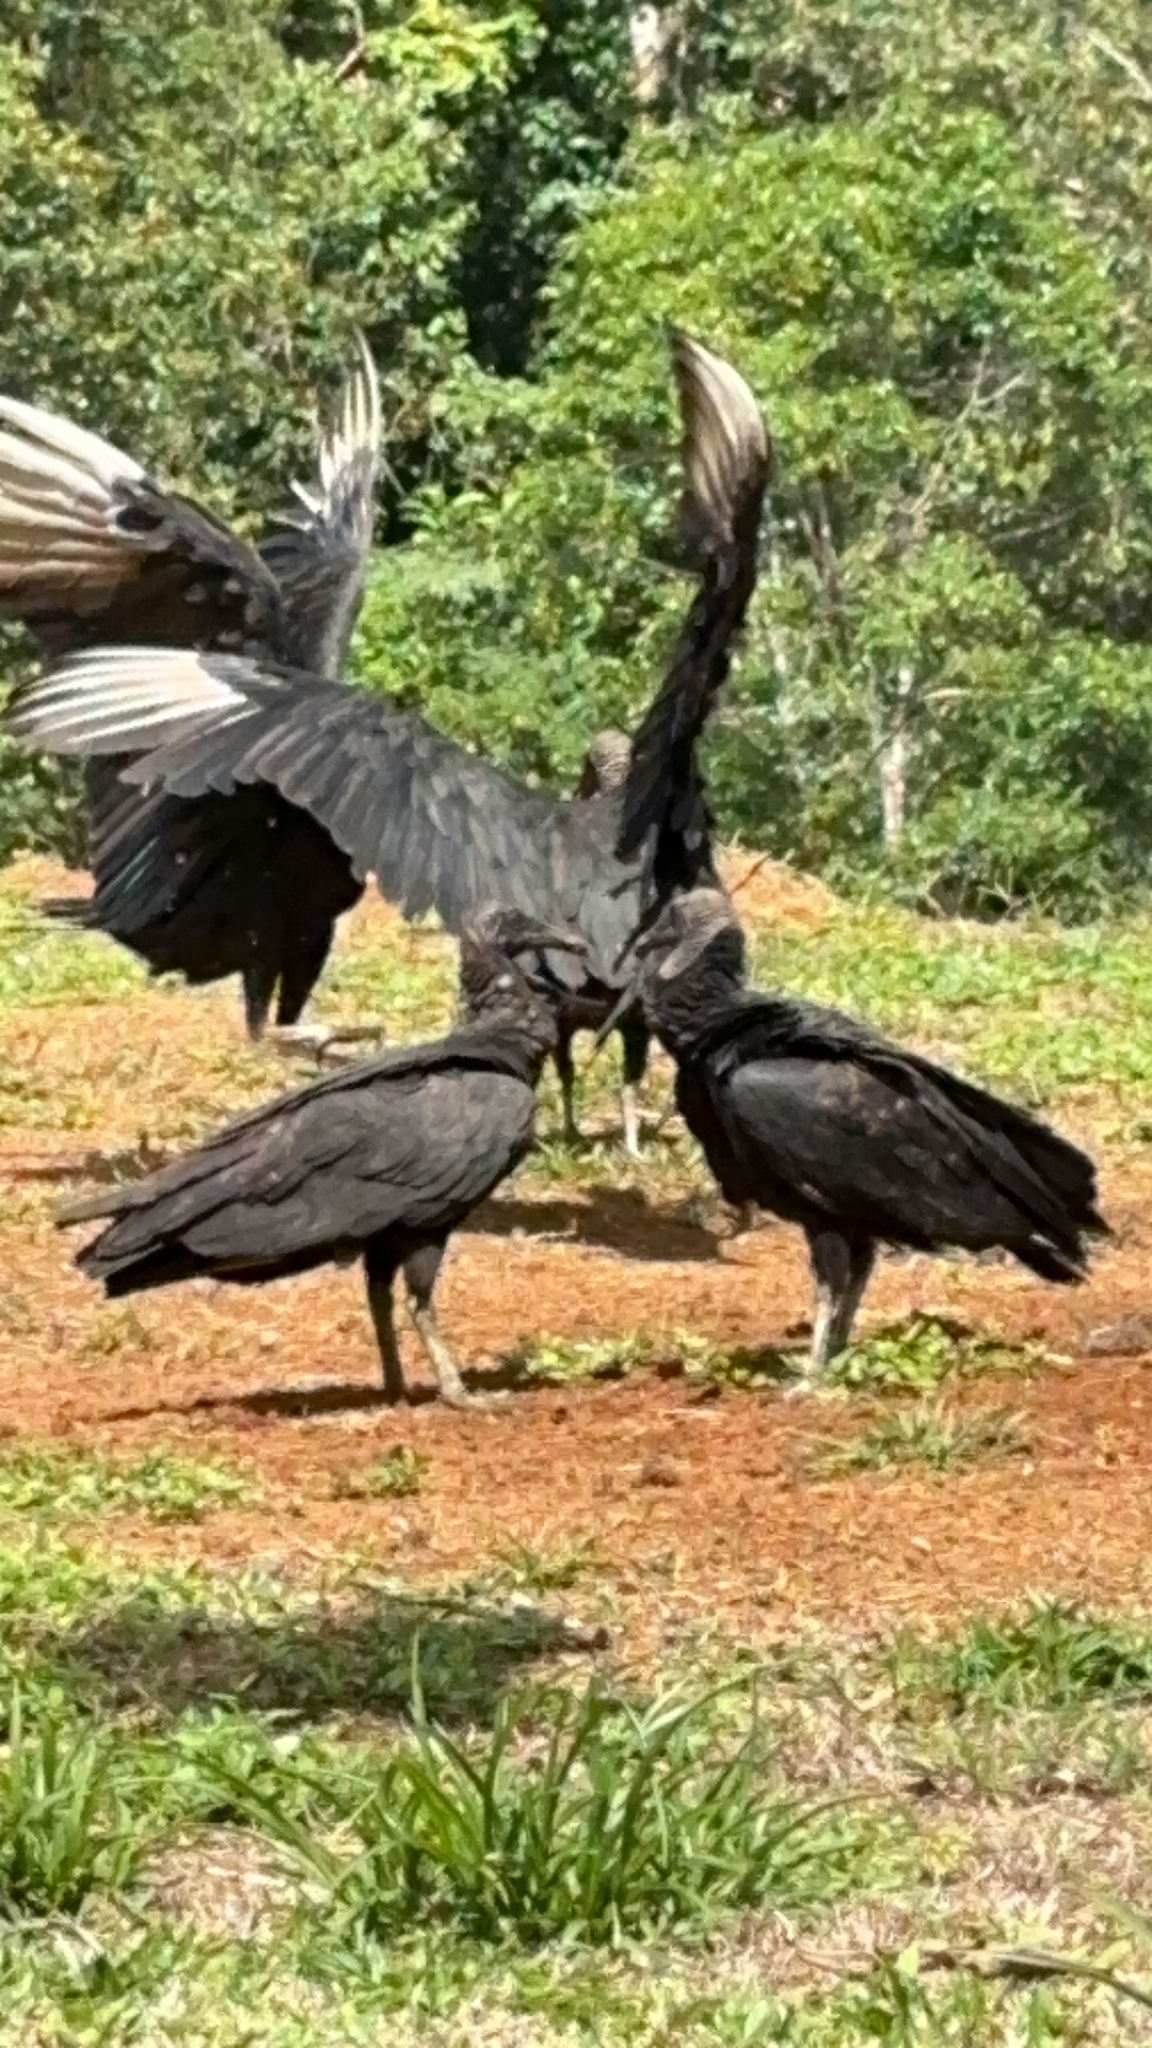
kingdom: Animalia
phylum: Chordata
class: Aves
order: Accipitriformes
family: Cathartidae
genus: Coragyps
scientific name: Coragyps atratus
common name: Black vulture
